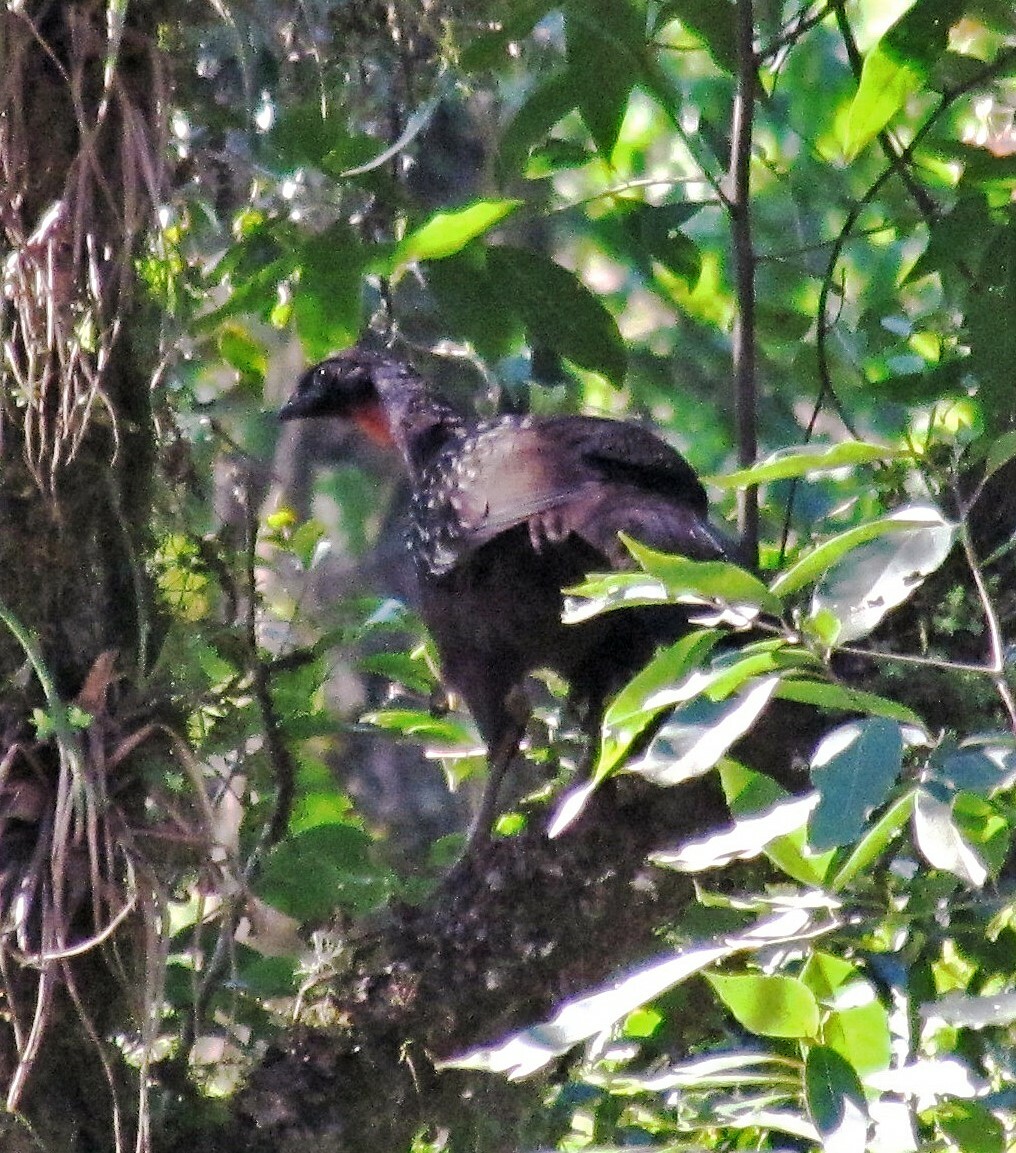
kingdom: Animalia
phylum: Chordata
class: Aves
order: Galliformes
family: Cracidae
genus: Penelope
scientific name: Penelope bridgesi
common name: Yungas guan
